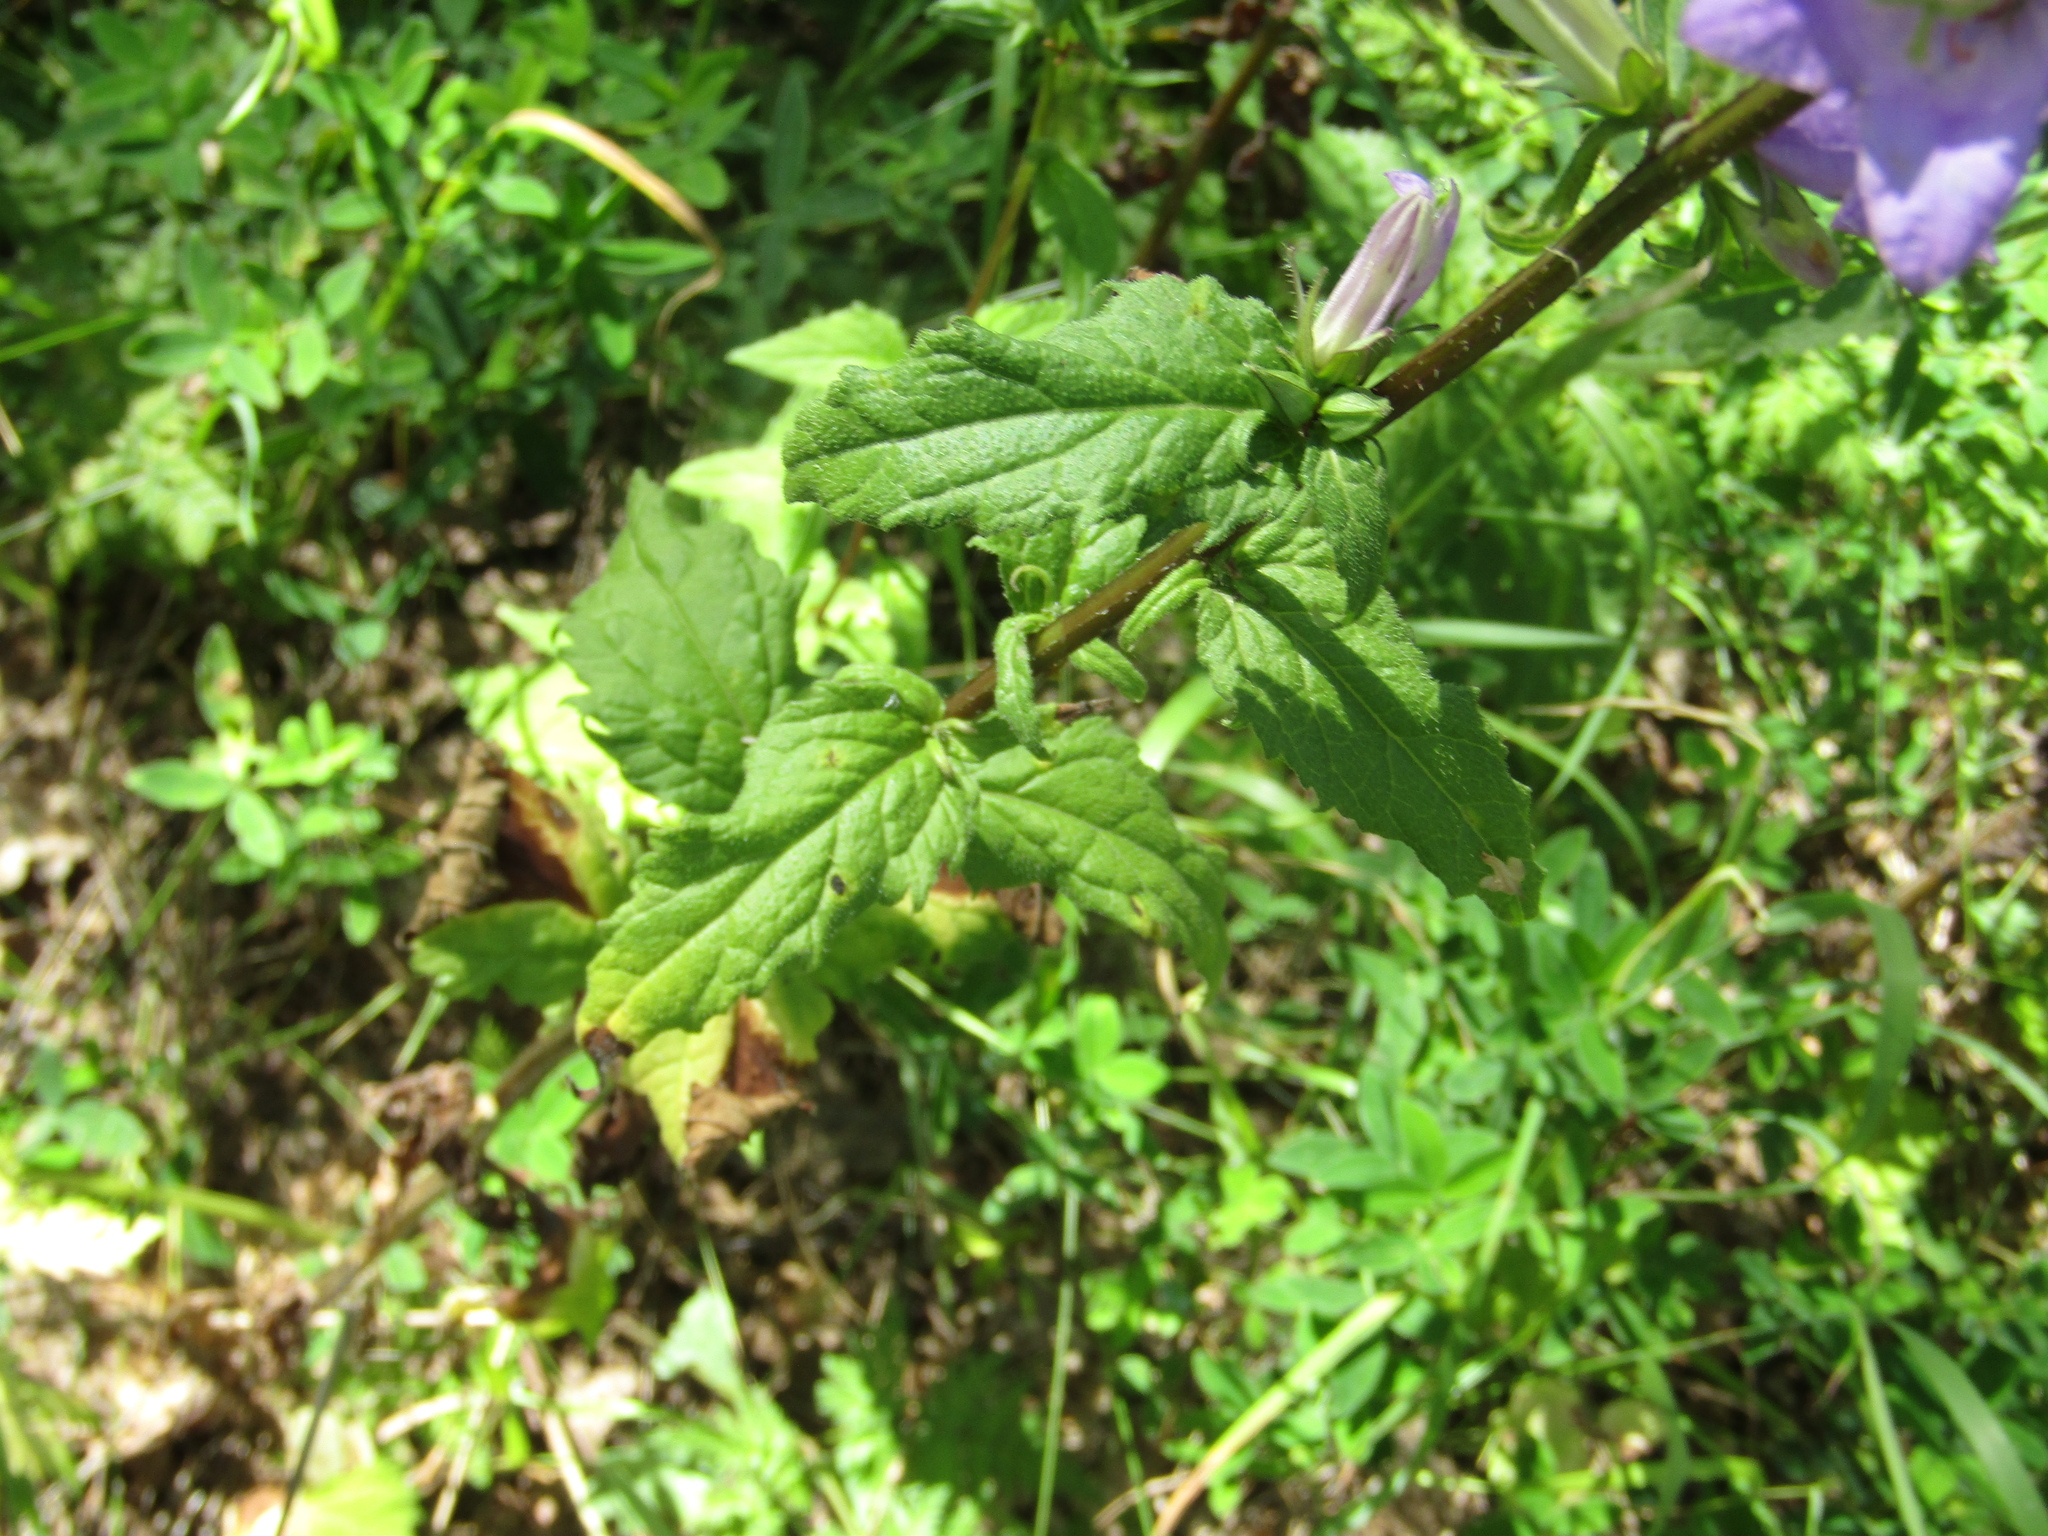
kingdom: Plantae
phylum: Tracheophyta
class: Magnoliopsida
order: Asterales
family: Campanulaceae
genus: Campanula
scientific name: Campanula trachelium
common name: Nettle-leaved bellflower
